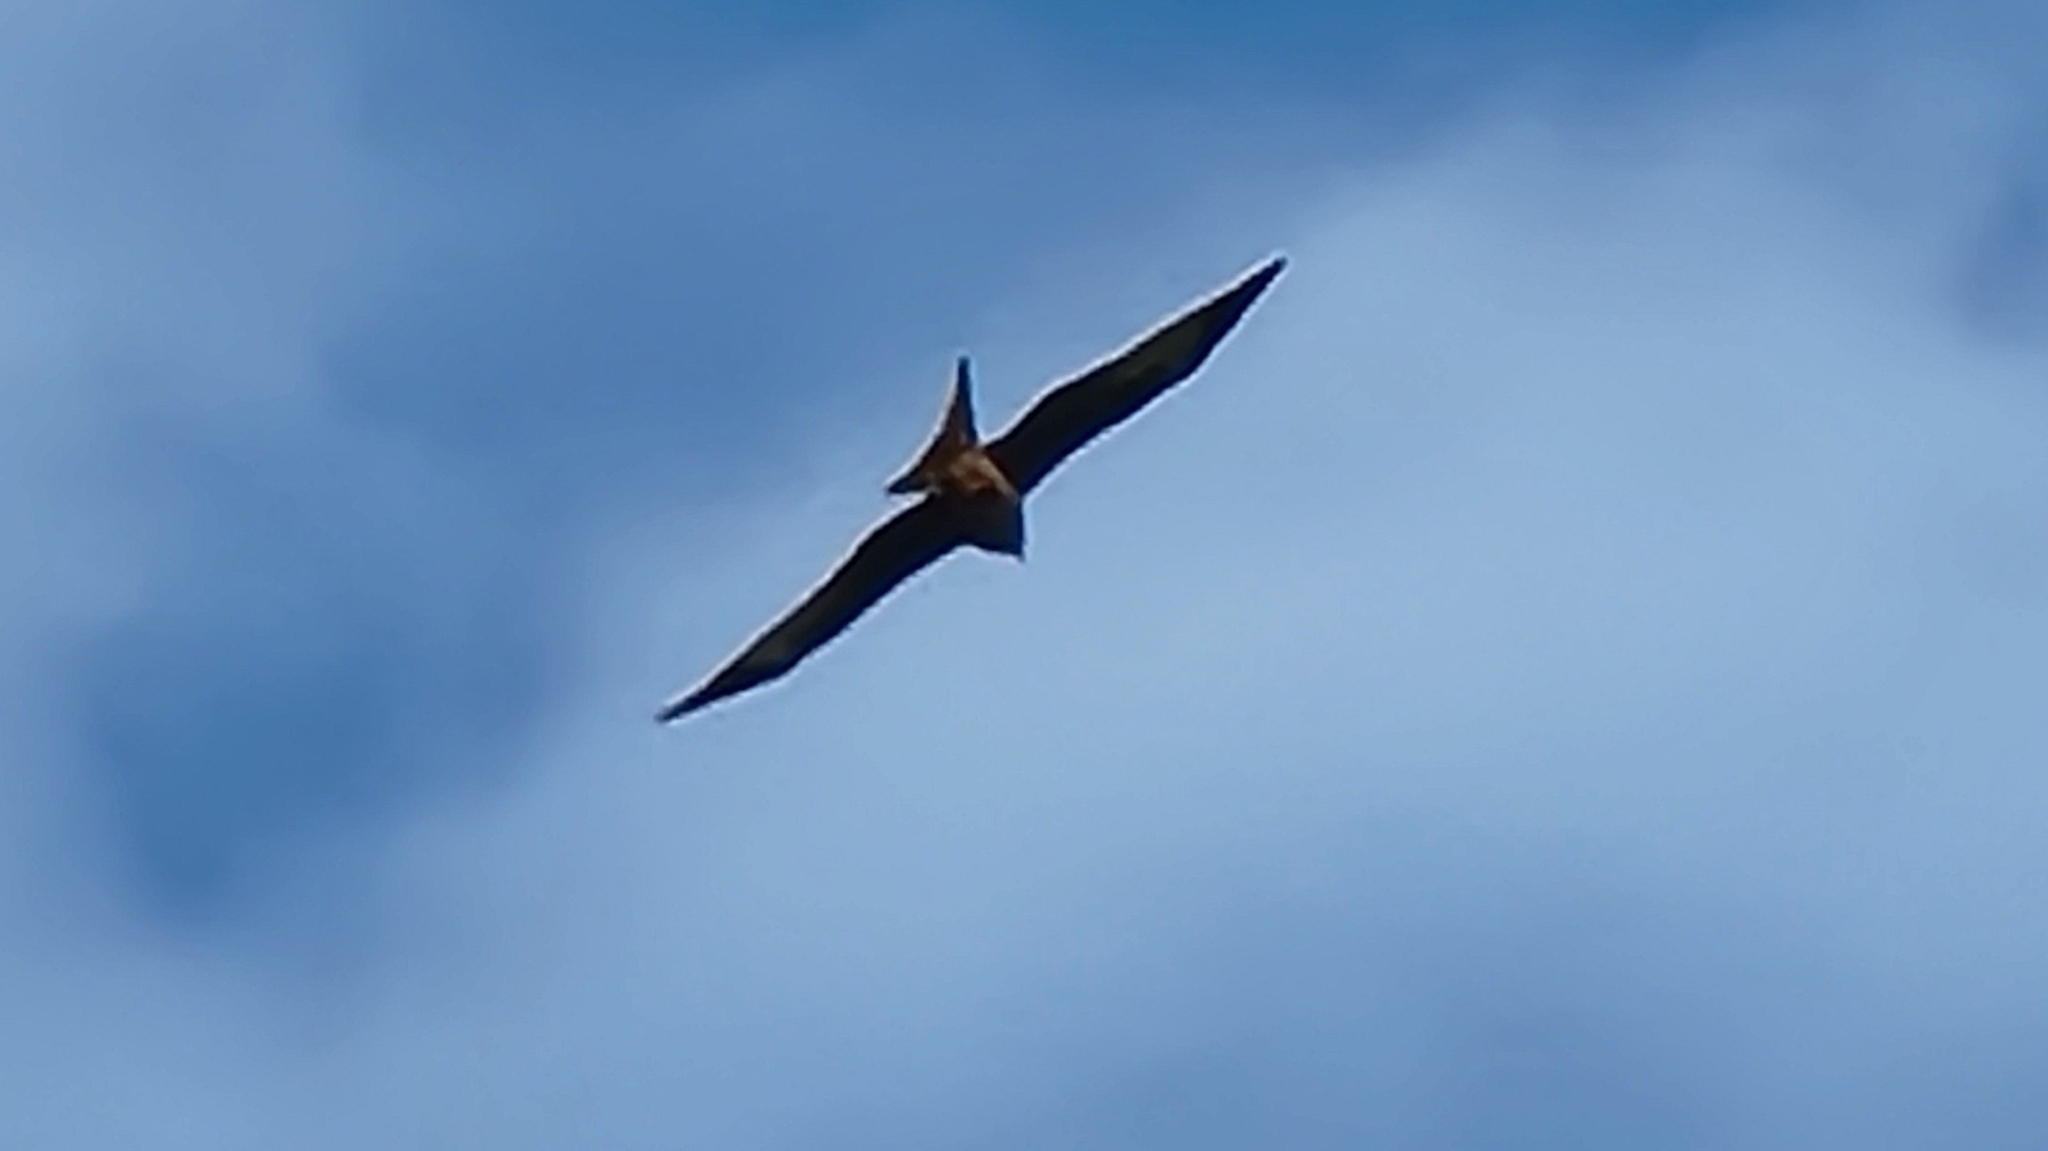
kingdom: Animalia
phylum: Chordata
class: Aves
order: Accipitriformes
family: Accipitridae
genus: Milvus
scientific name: Milvus milvus
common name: Red kite
